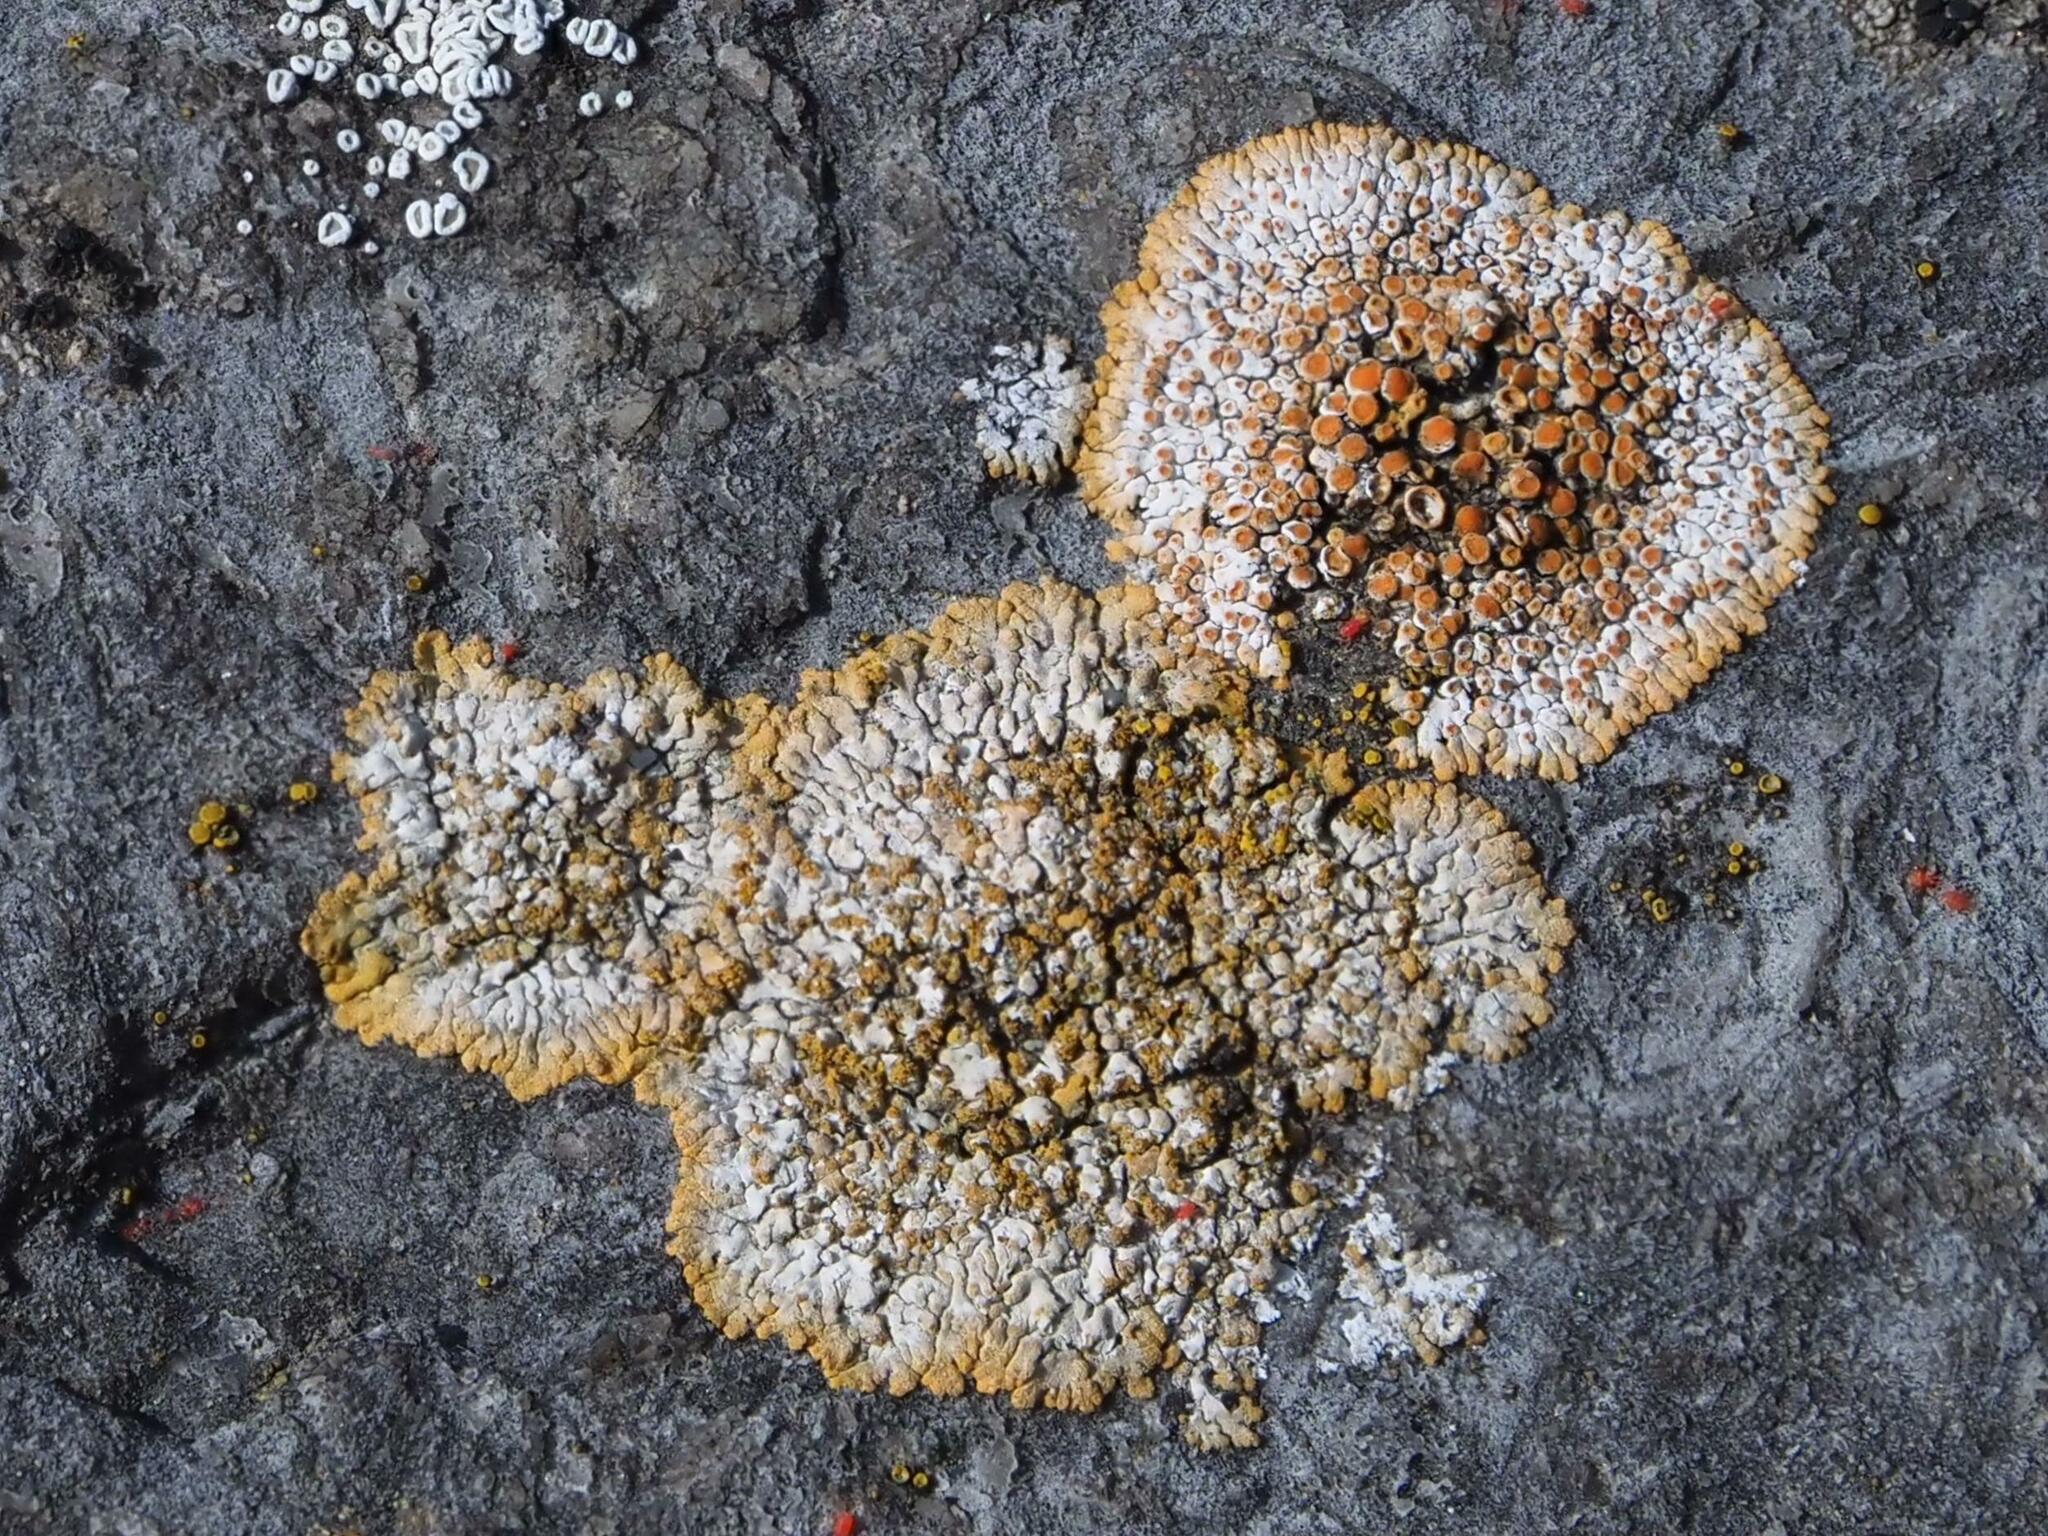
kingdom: Fungi
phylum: Ascomycota
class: Lecanoromycetes
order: Teloschistales
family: Teloschistaceae
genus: Calogaya
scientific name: Calogaya pusilla
